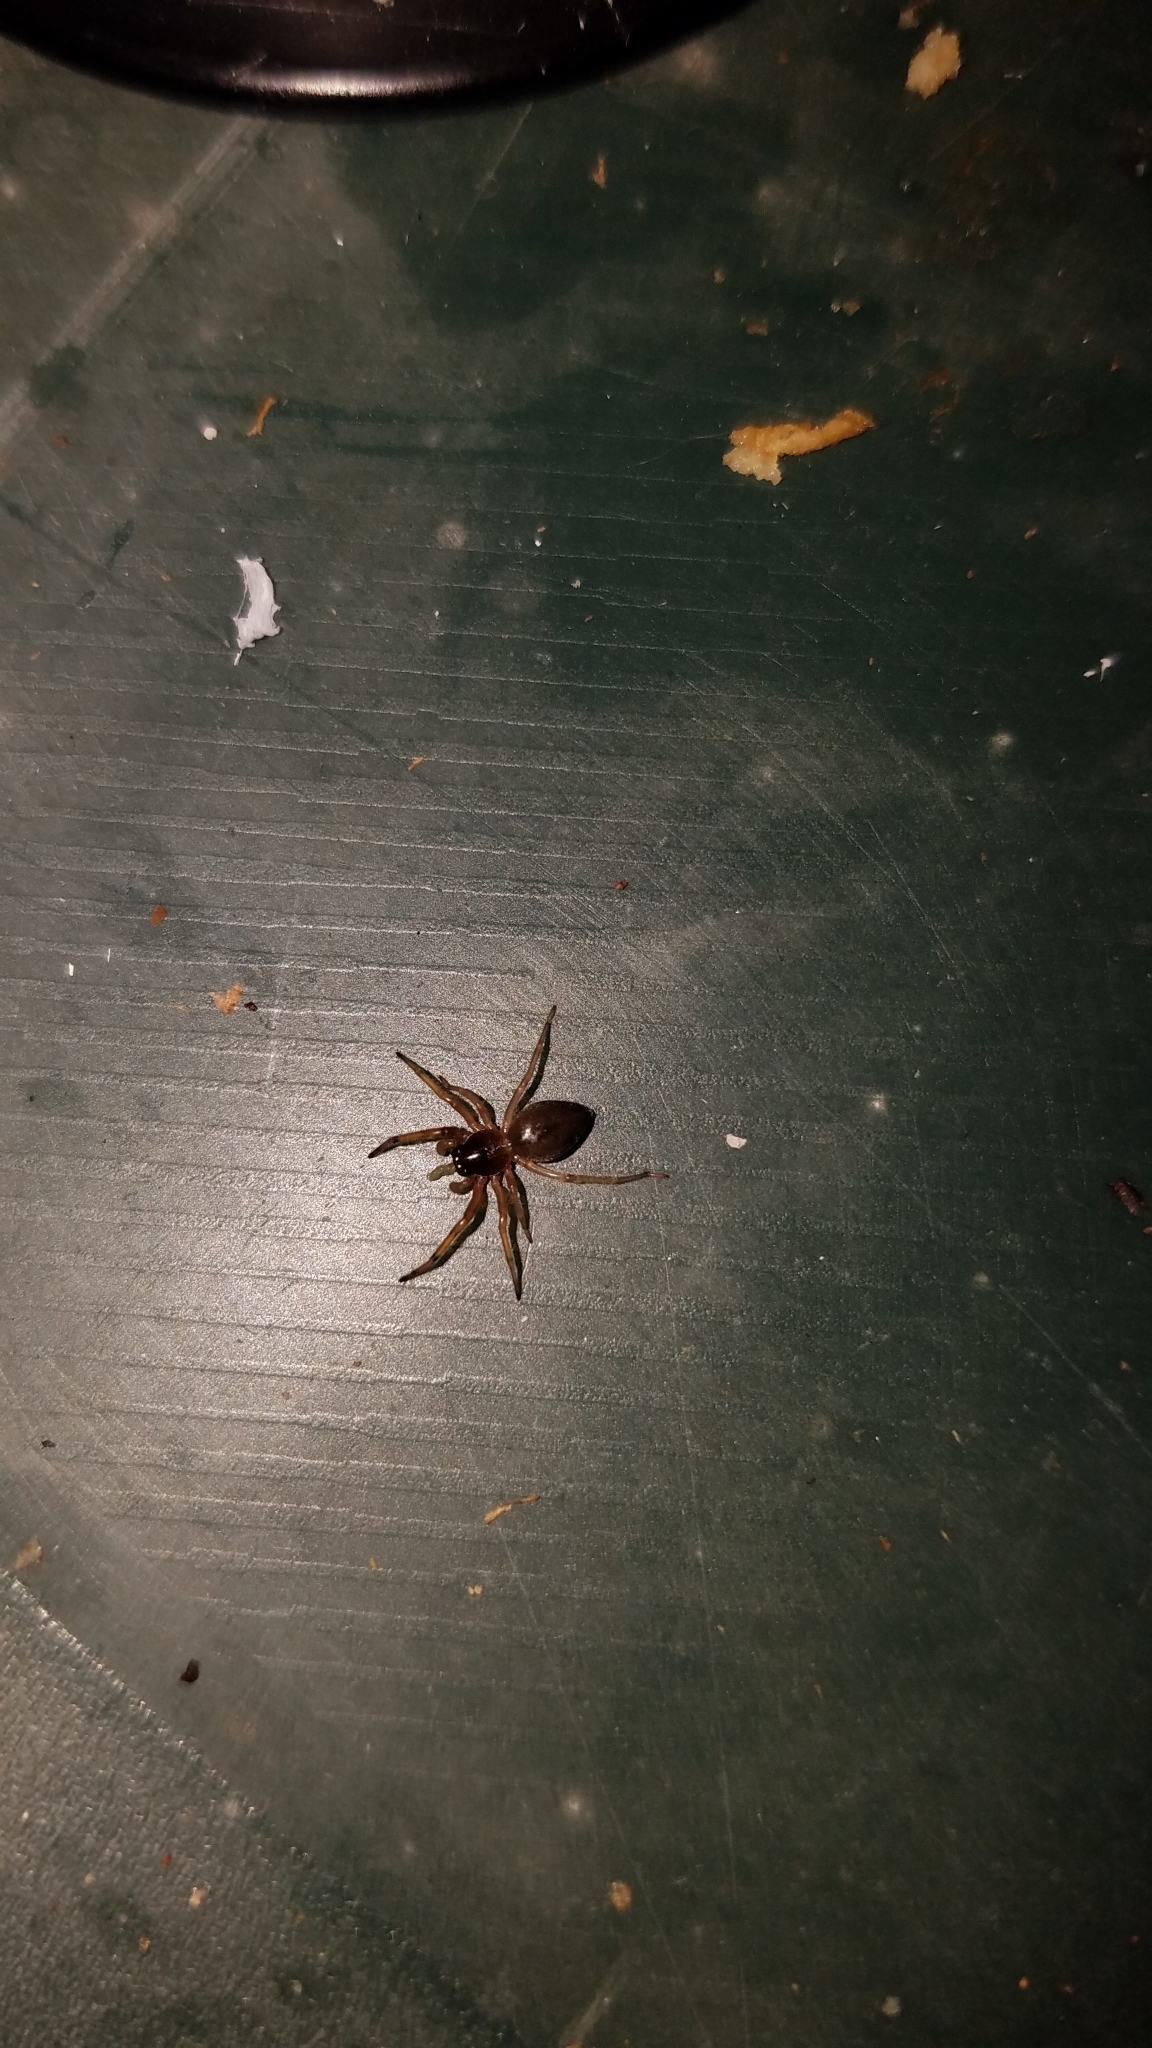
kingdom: Animalia
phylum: Arthropoda
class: Arachnida
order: Araneae
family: Trachelidae
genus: Trachelas
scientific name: Trachelas tranquillus
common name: Broad-faced sac spider
